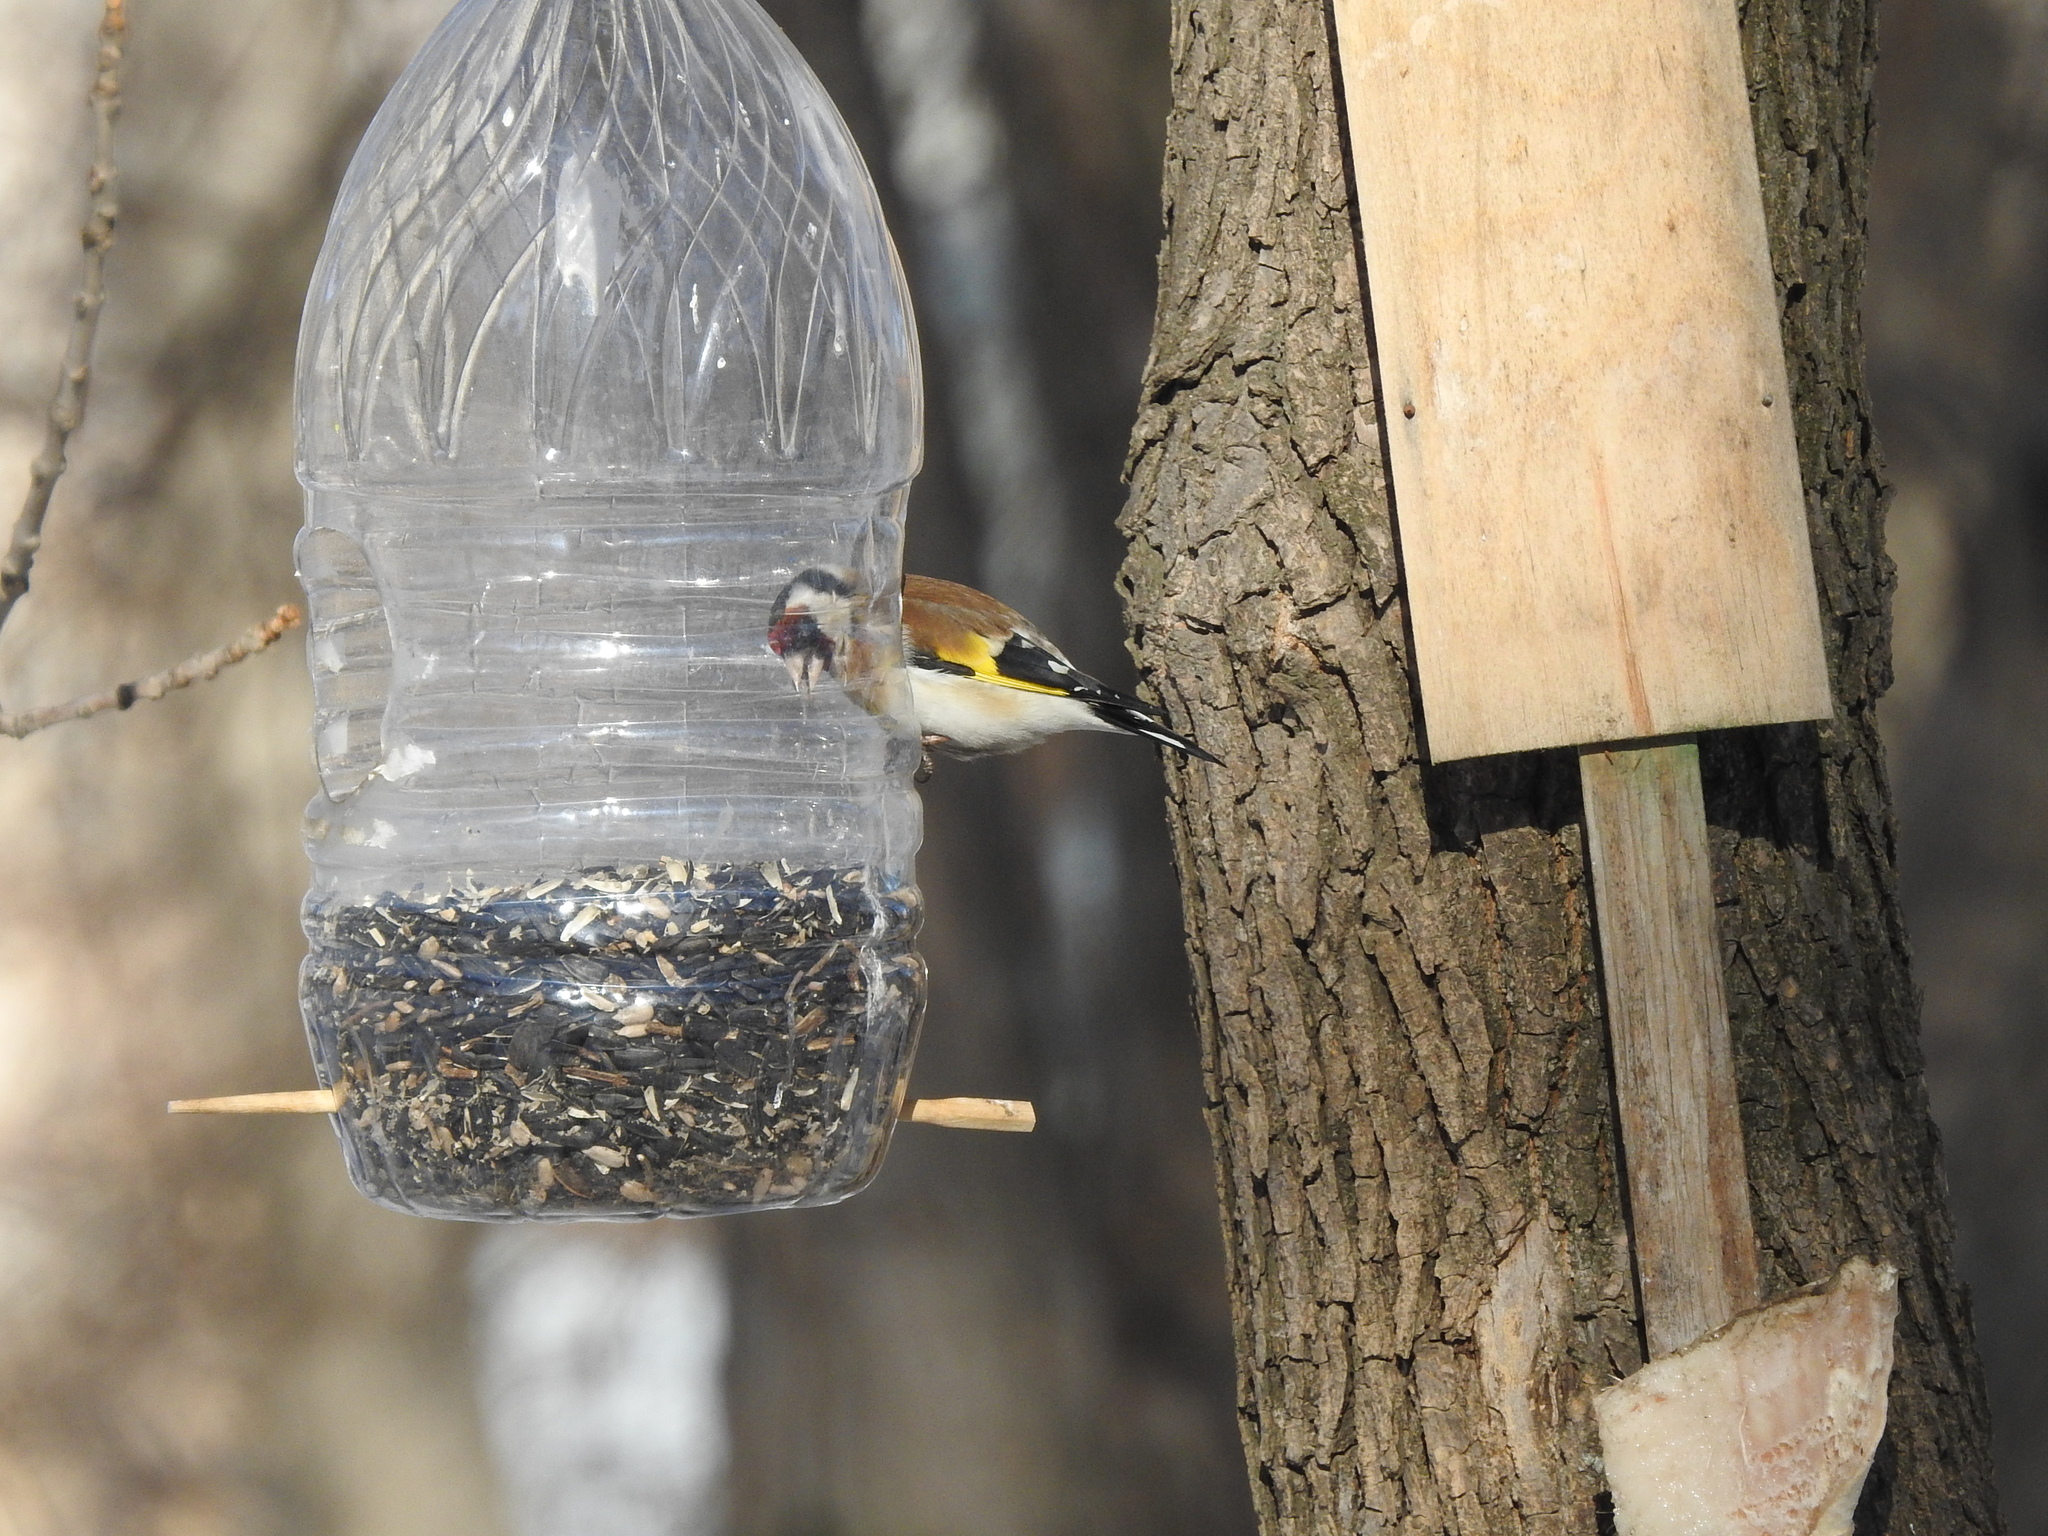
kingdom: Animalia
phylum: Chordata
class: Aves
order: Passeriformes
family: Fringillidae
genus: Carduelis
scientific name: Carduelis carduelis
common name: European goldfinch
